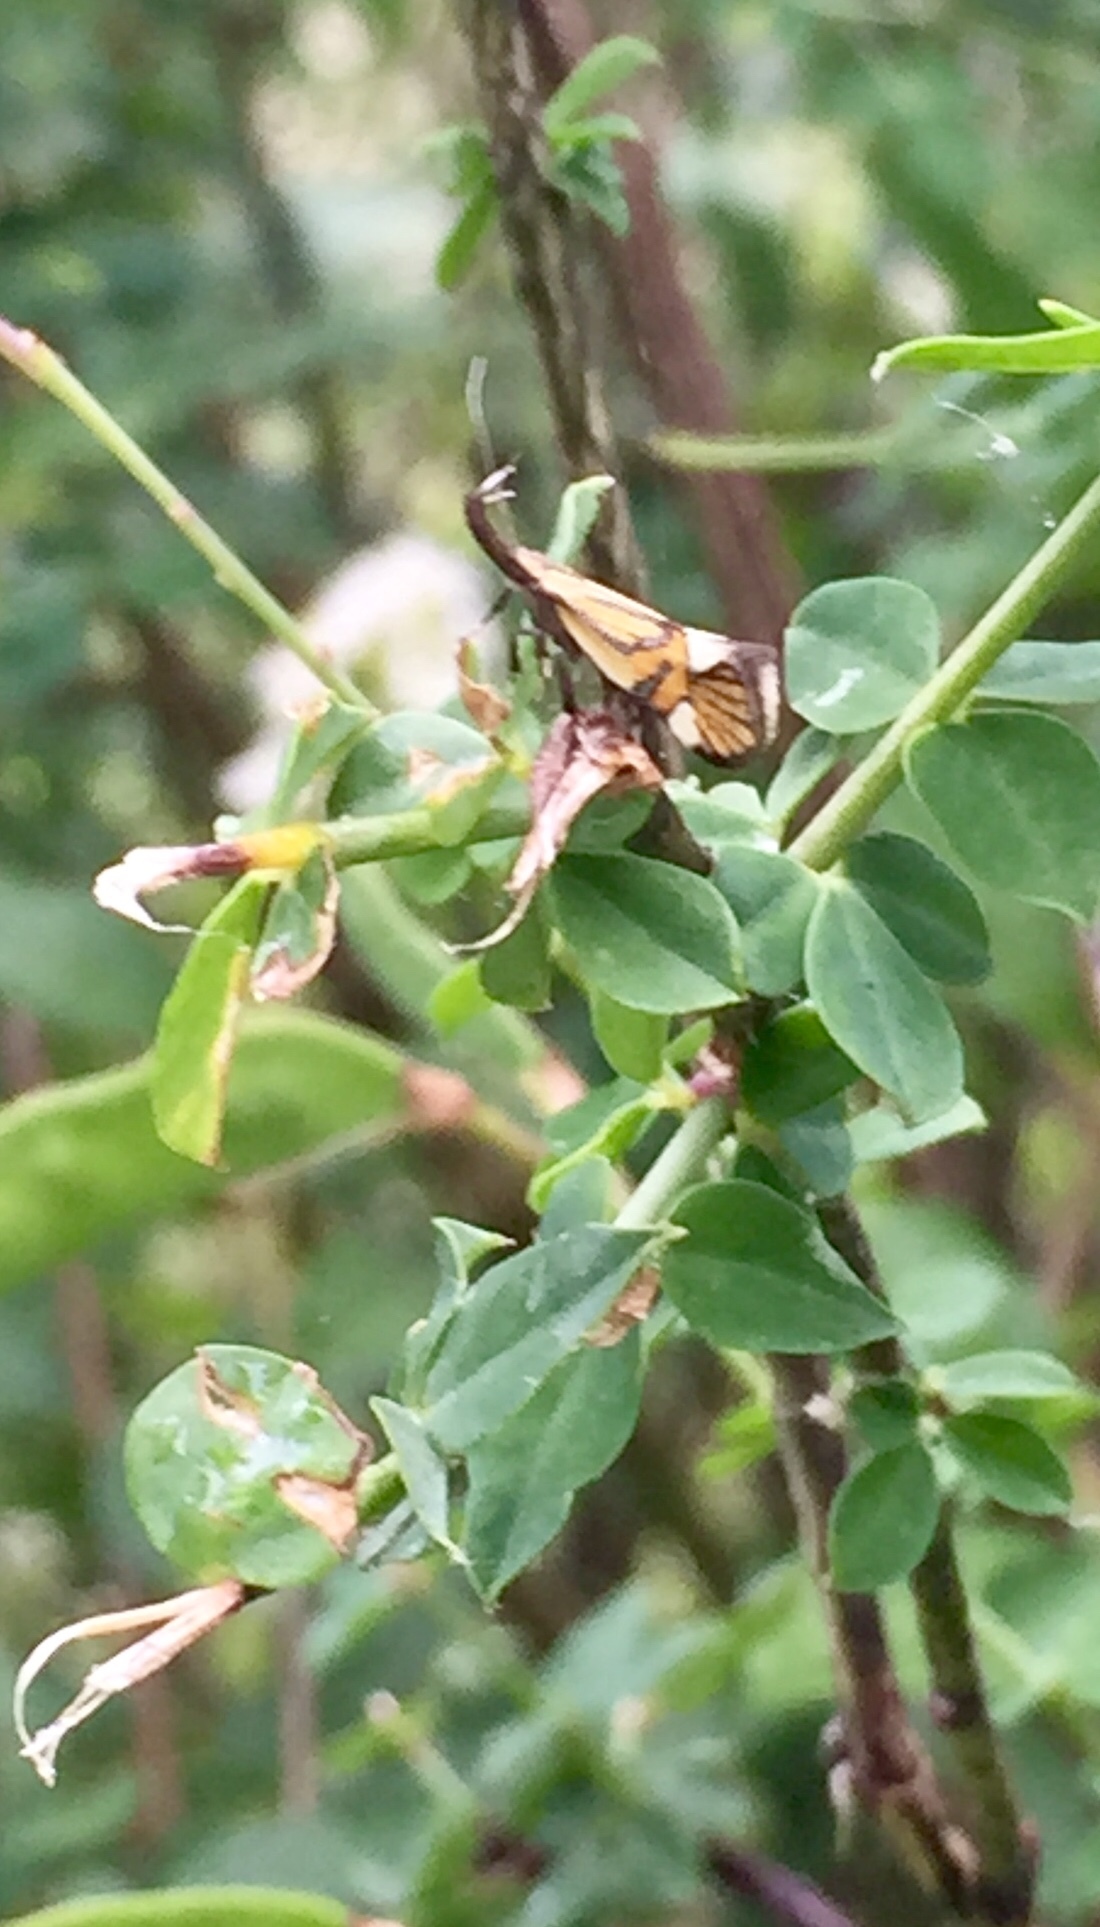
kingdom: Animalia
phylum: Arthropoda
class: Insecta
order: Lepidoptera
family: Oecophoridae
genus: Oecophora
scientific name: Oecophora Alabonia geoffrella
